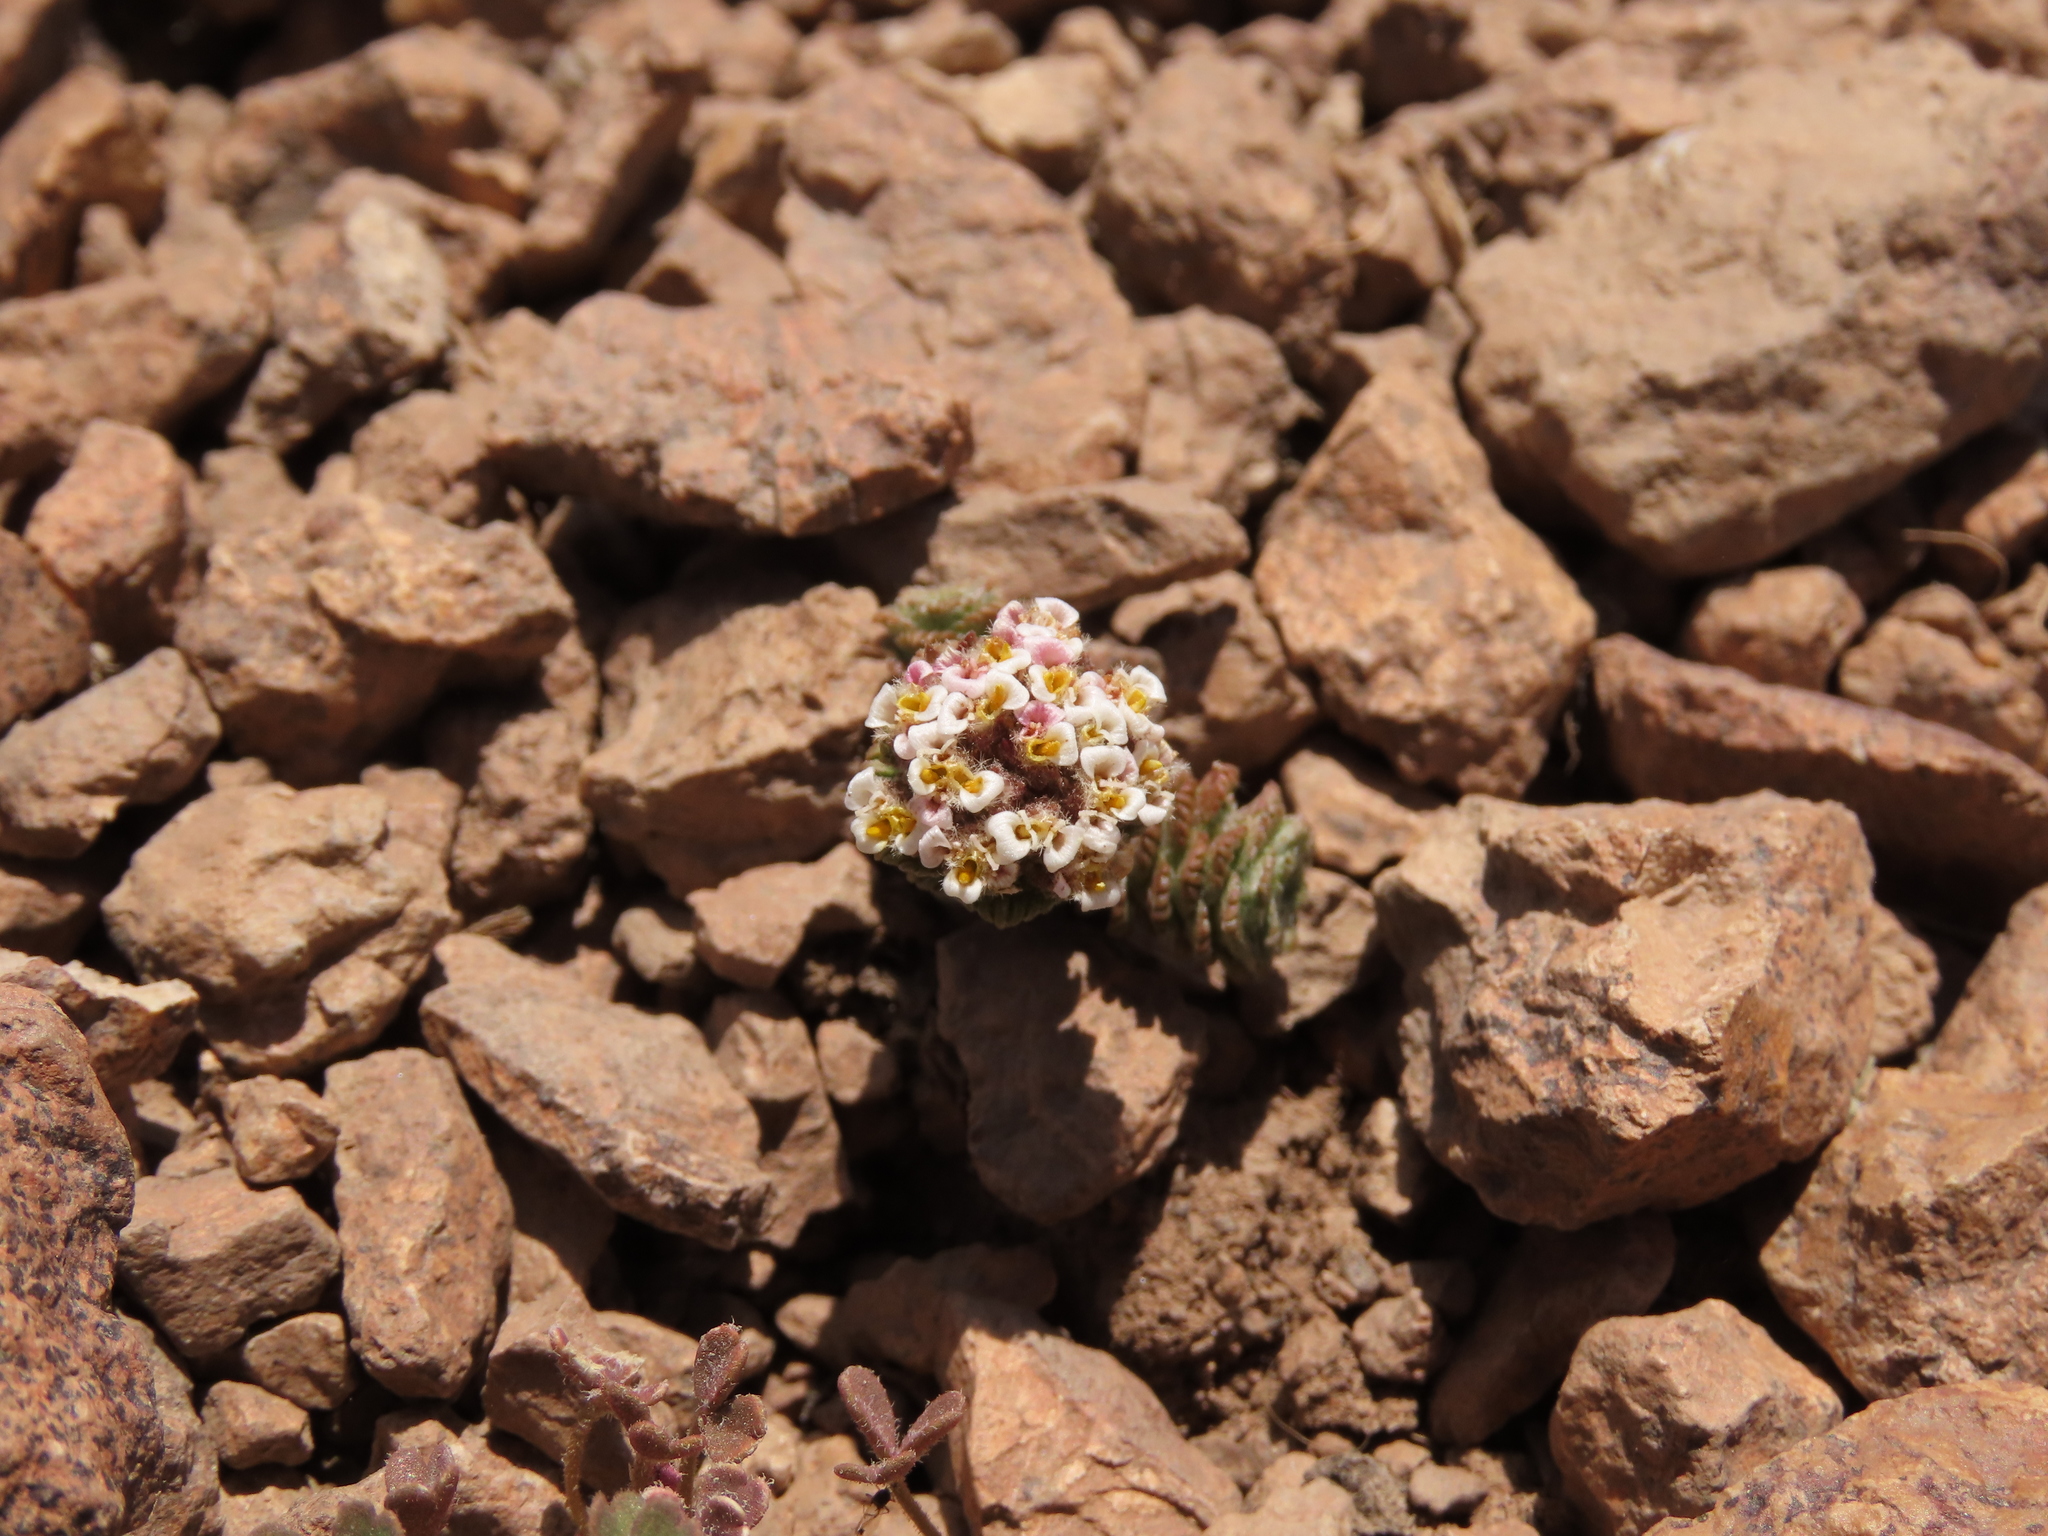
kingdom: Plantae
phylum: Tracheophyta
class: Magnoliopsida
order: Asterales
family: Asteraceae
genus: Nassauvia
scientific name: Nassauvia lagascae
